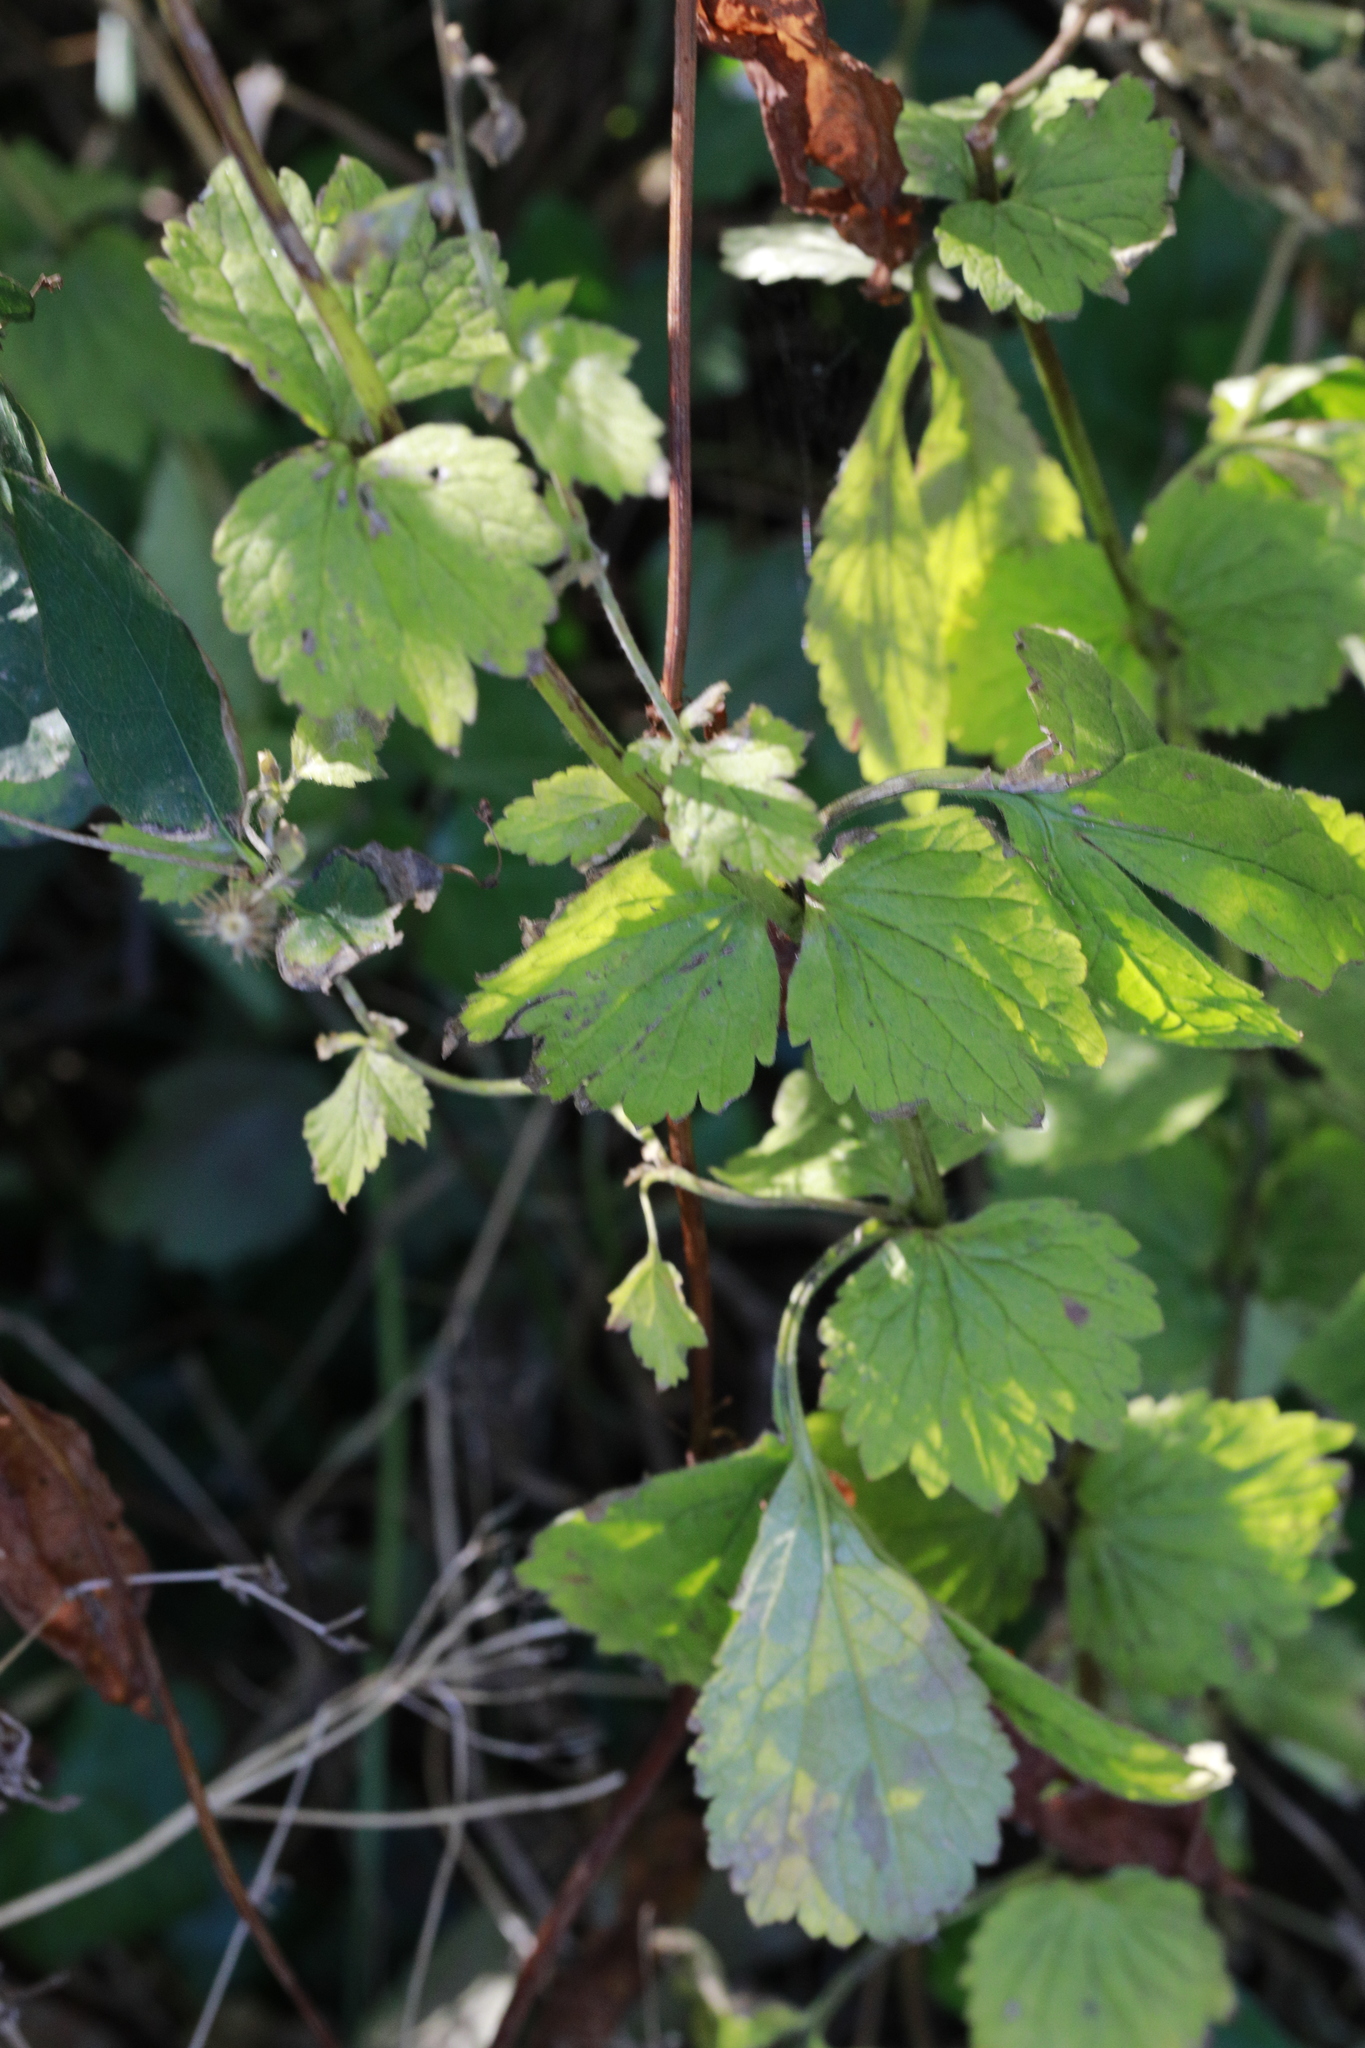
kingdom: Plantae
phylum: Tracheophyta
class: Magnoliopsida
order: Rosales
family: Rosaceae
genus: Geum
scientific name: Geum urbanum
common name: Wood avens
